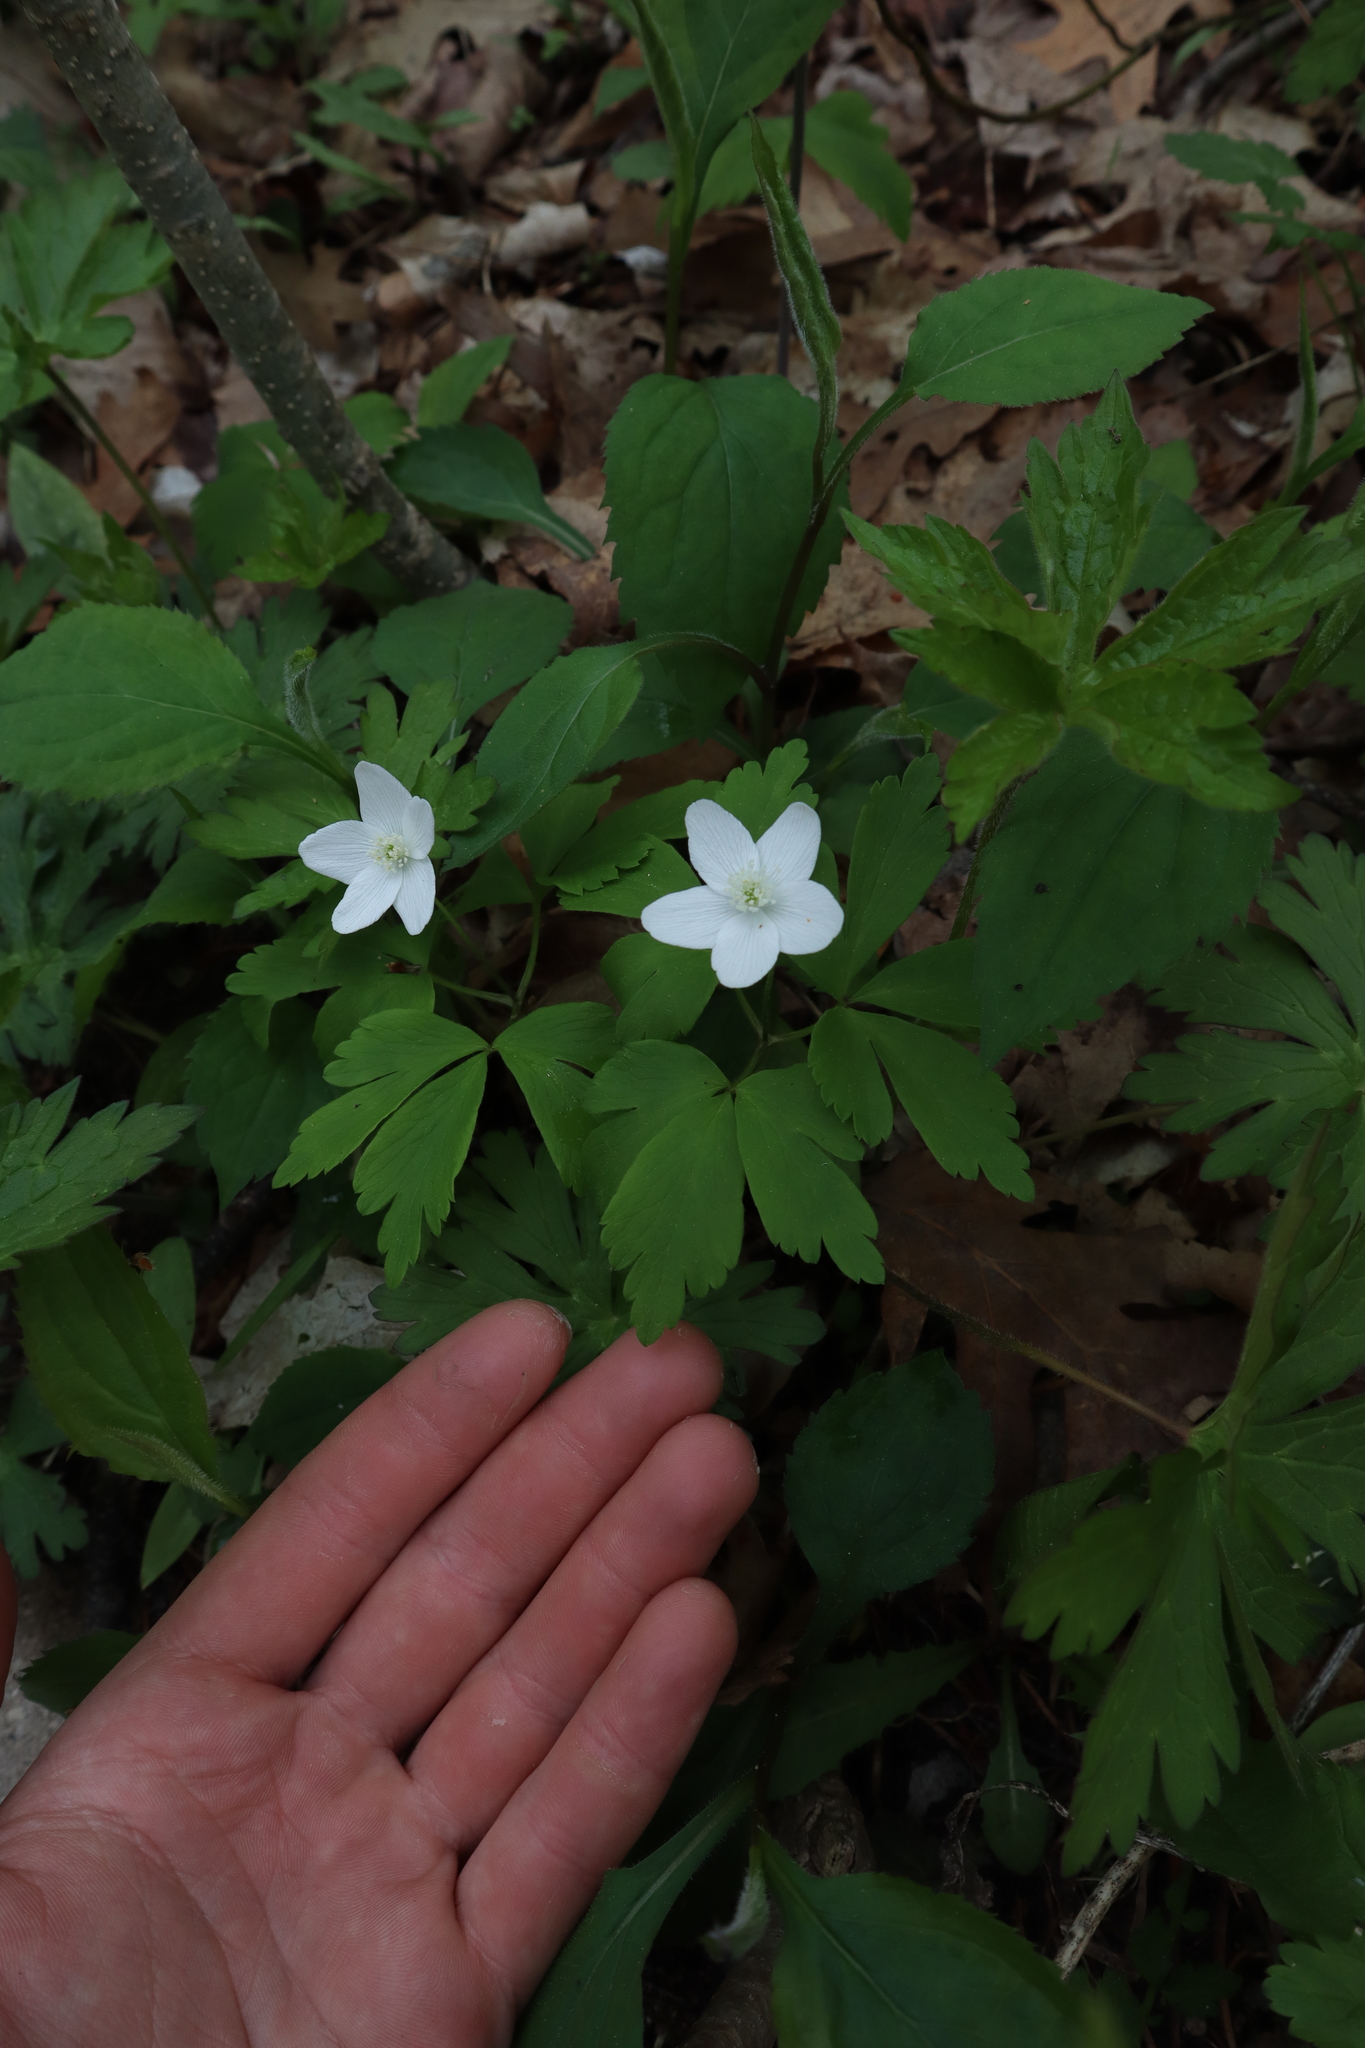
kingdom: Plantae
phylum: Tracheophyta
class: Magnoliopsida
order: Ranunculales
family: Ranunculaceae
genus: Anemone
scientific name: Anemone quinquefolia
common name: Wood anemone
